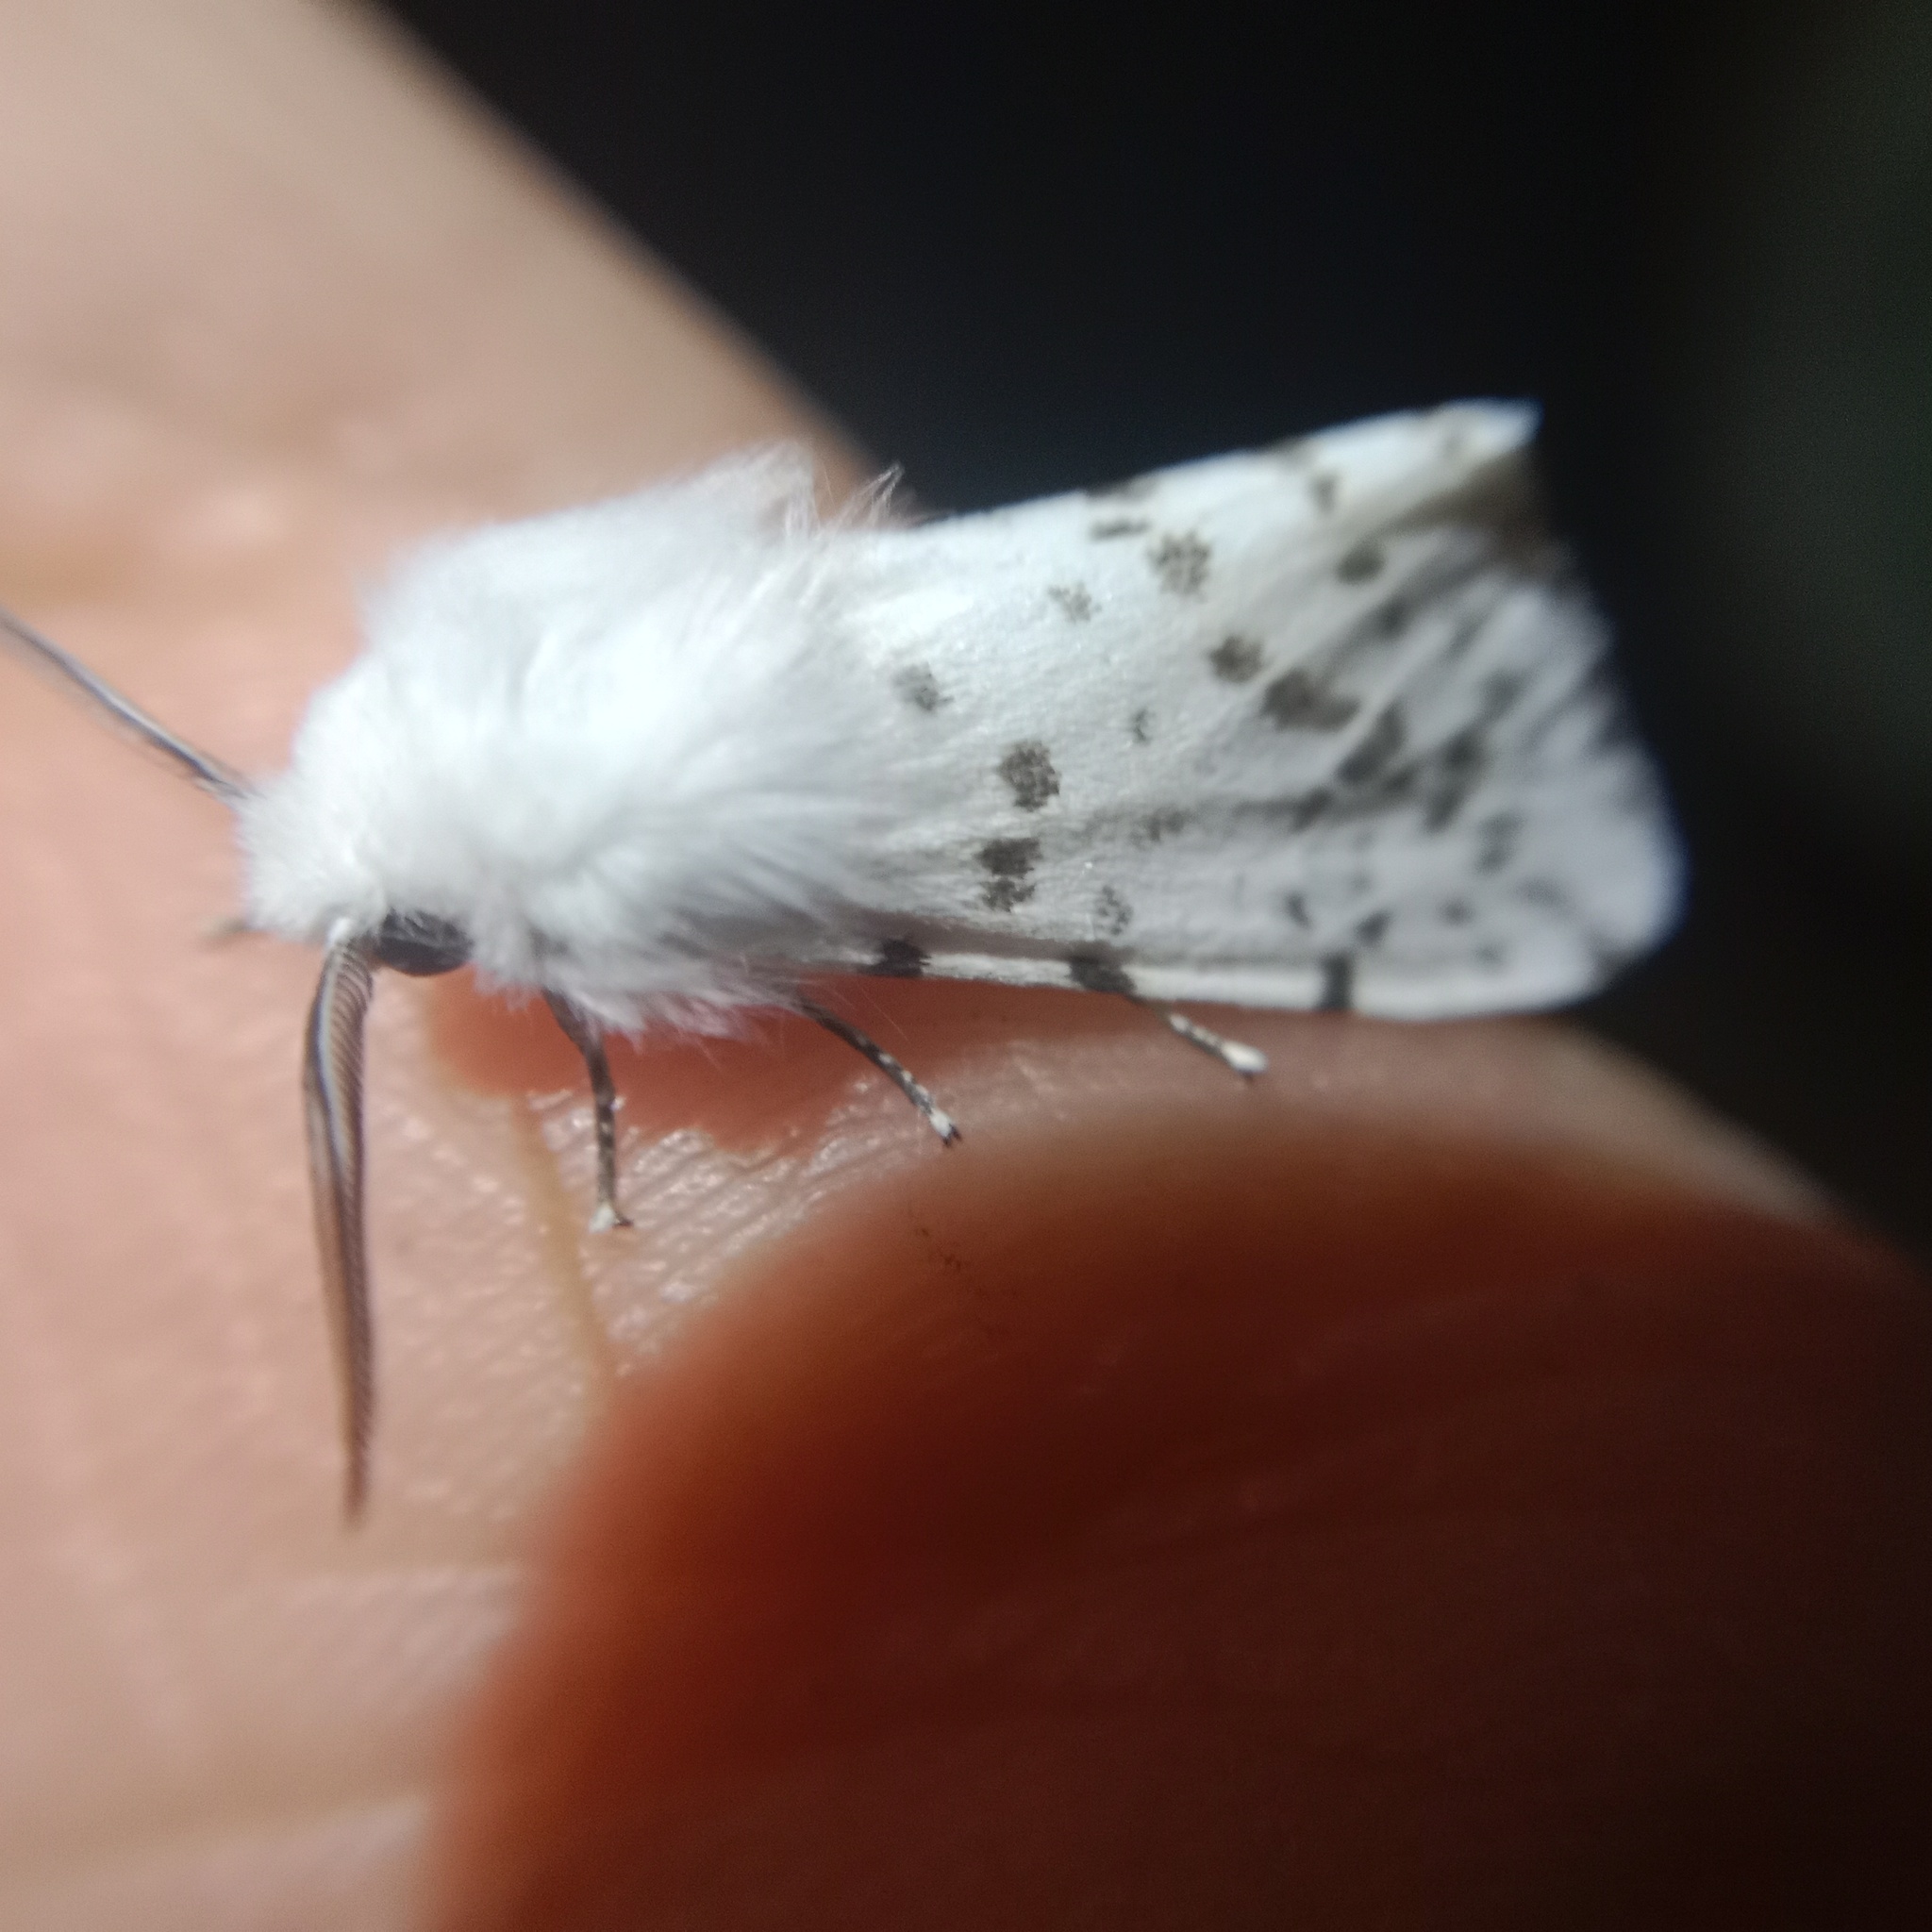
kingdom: Animalia
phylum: Arthropoda
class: Insecta
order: Lepidoptera
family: Erebidae
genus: Hyphantria
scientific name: Hyphantria cunea
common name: American white moth
